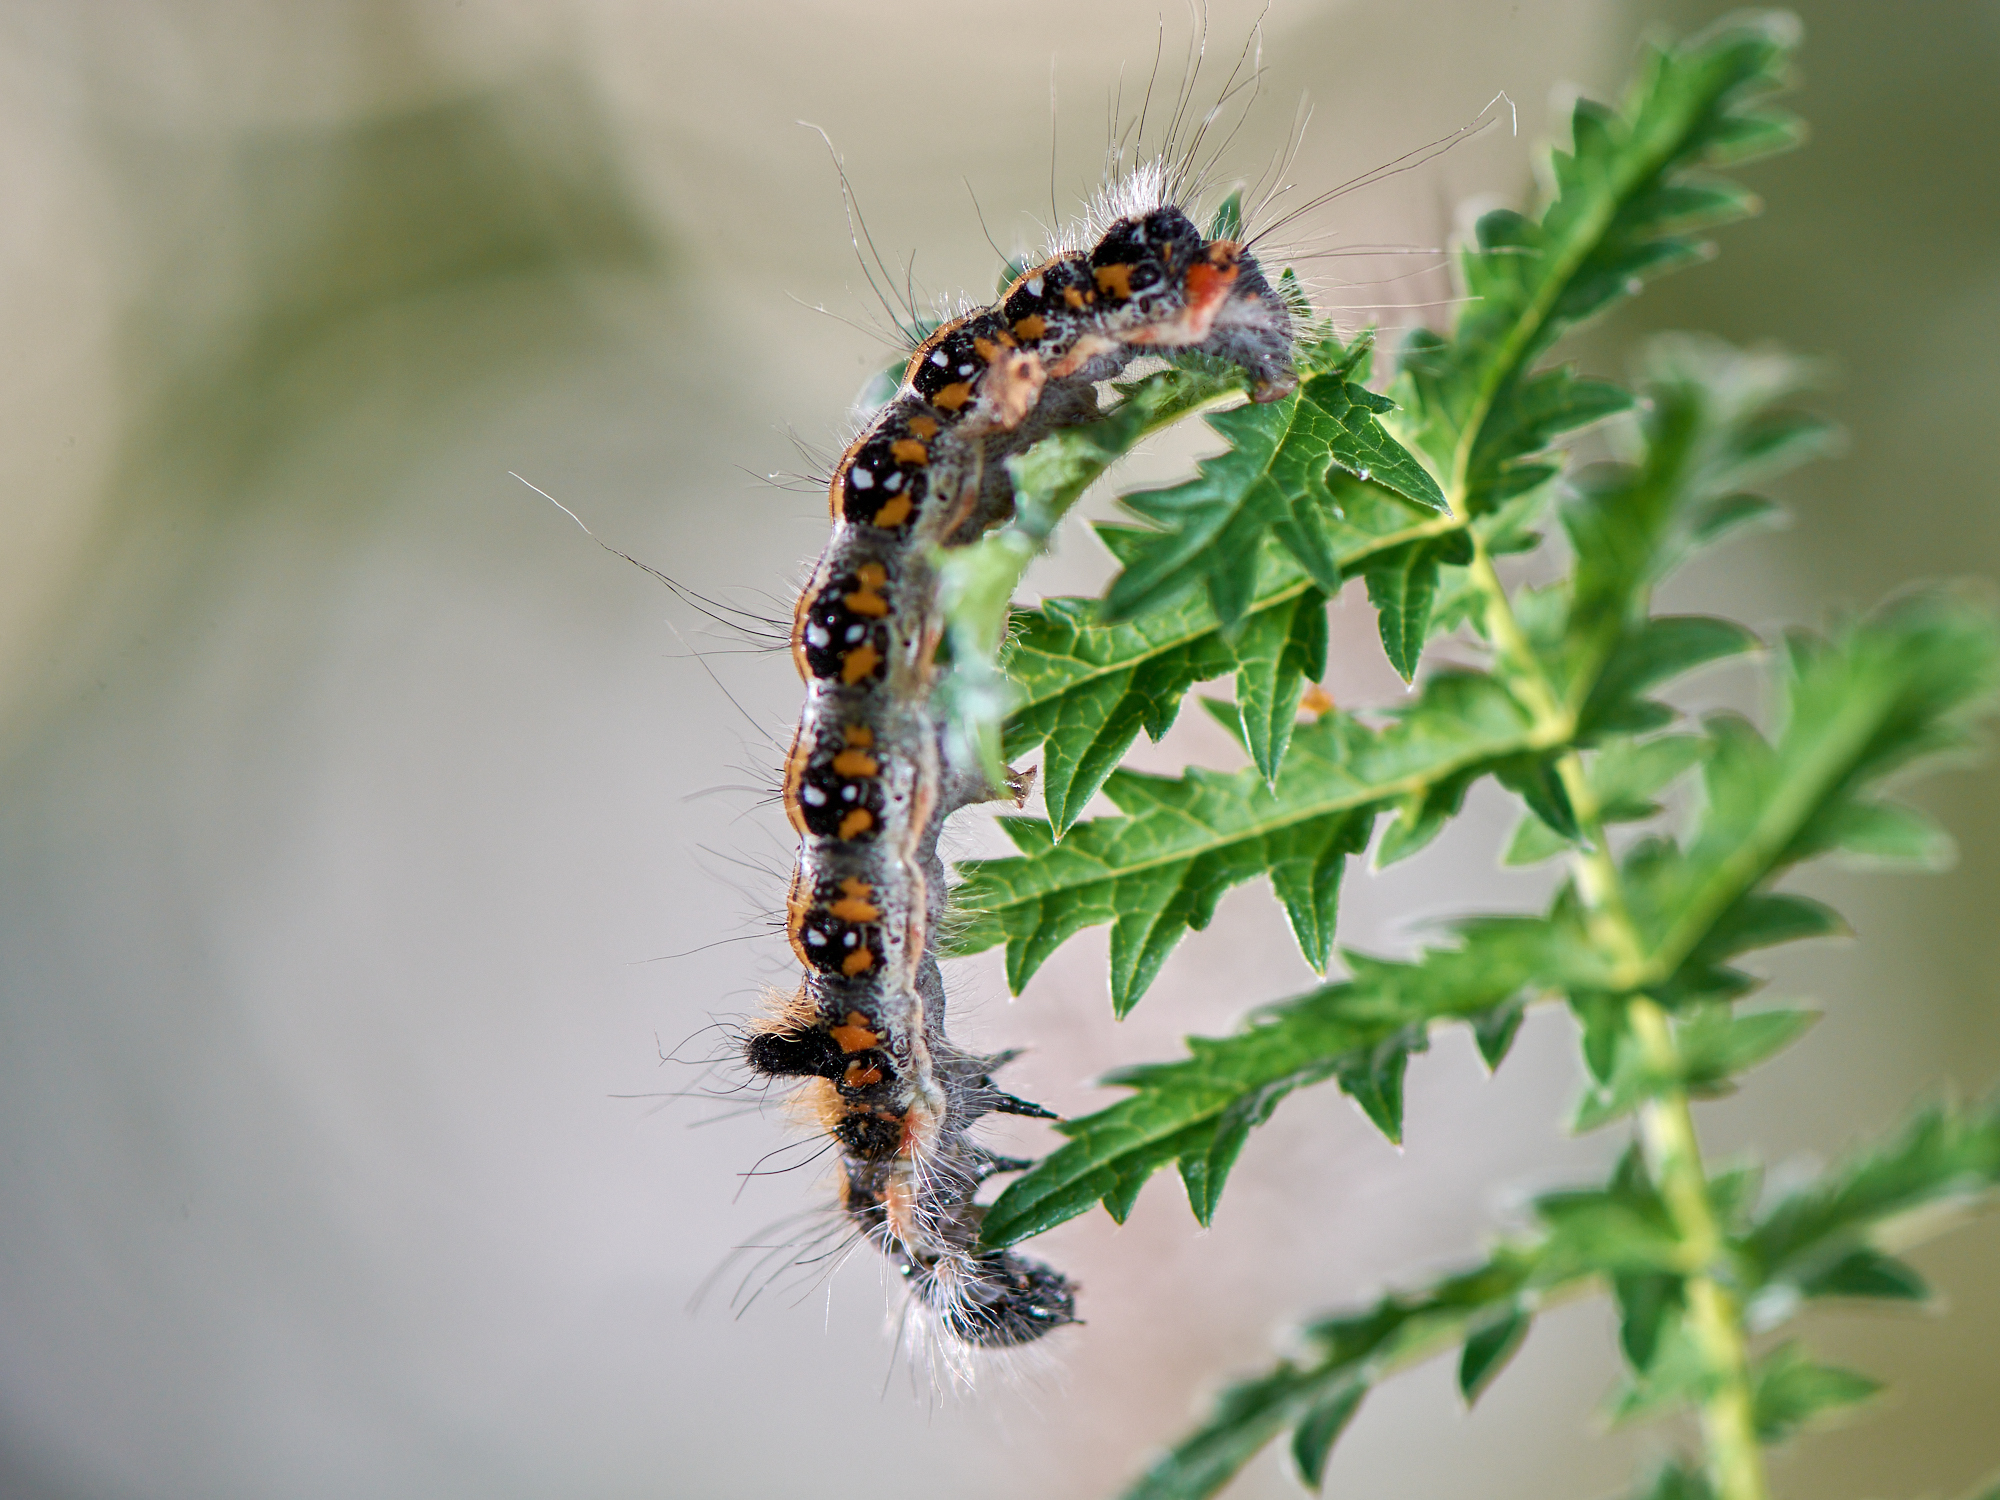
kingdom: Animalia
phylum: Arthropoda
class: Insecta
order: Lepidoptera
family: Noctuidae
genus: Acronicta
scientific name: Acronicta tridens
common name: Dark dagger
